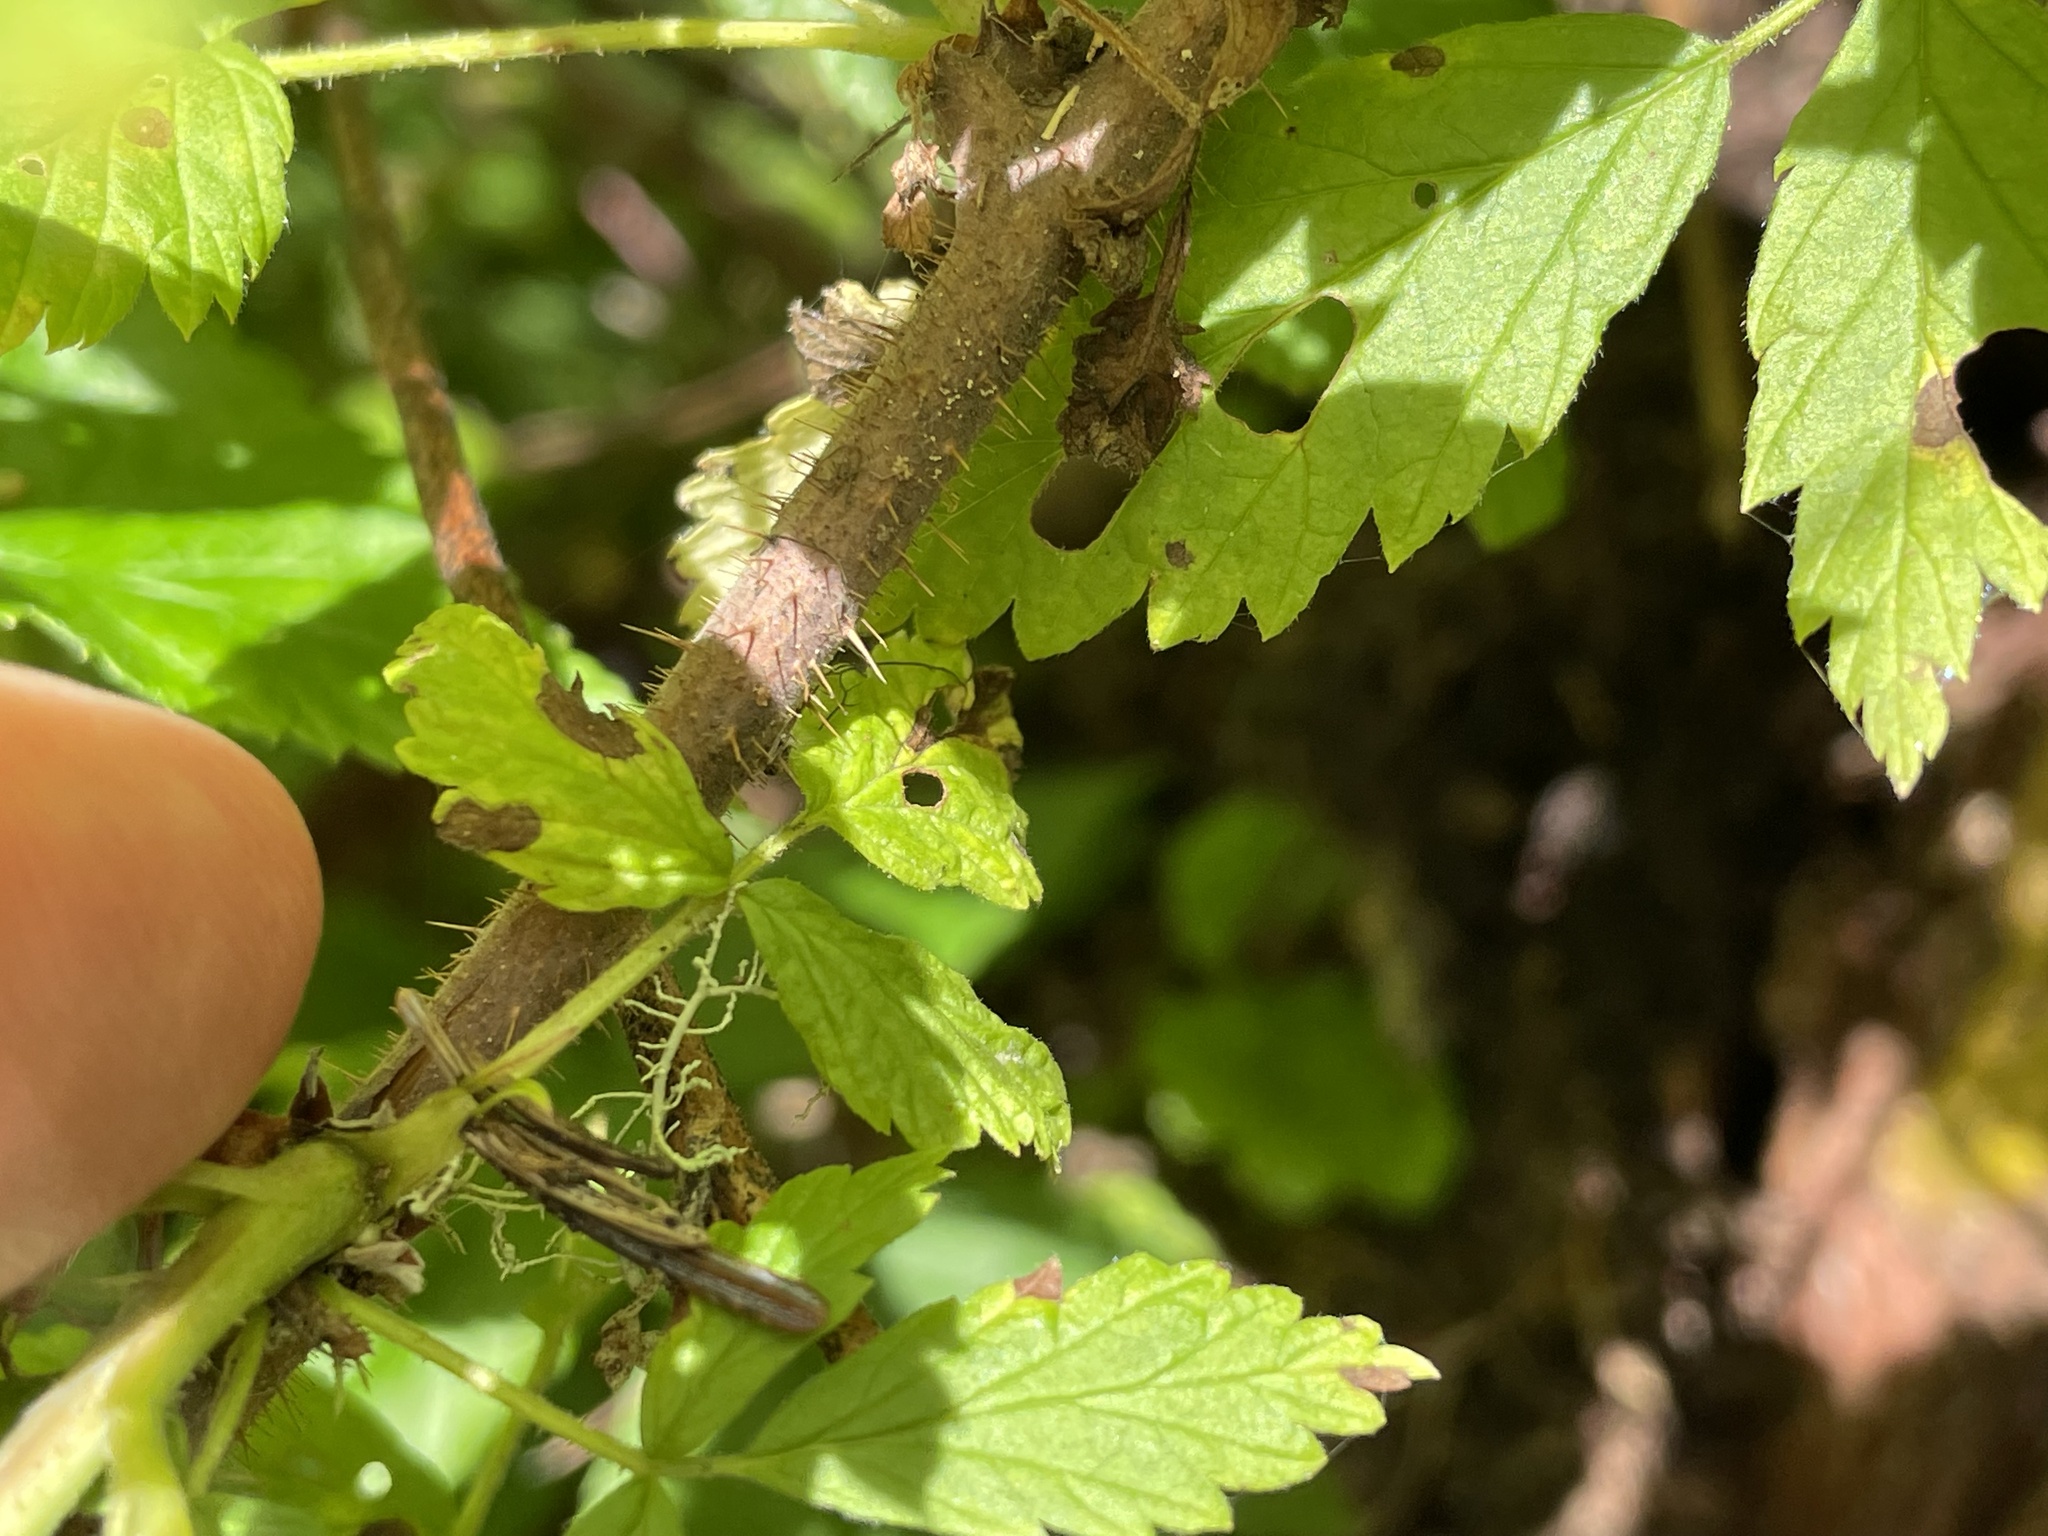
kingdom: Plantae
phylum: Tracheophyta
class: Magnoliopsida
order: Rosales
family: Rosaceae
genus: Rubus
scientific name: Rubus idaeus
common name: Raspberry
